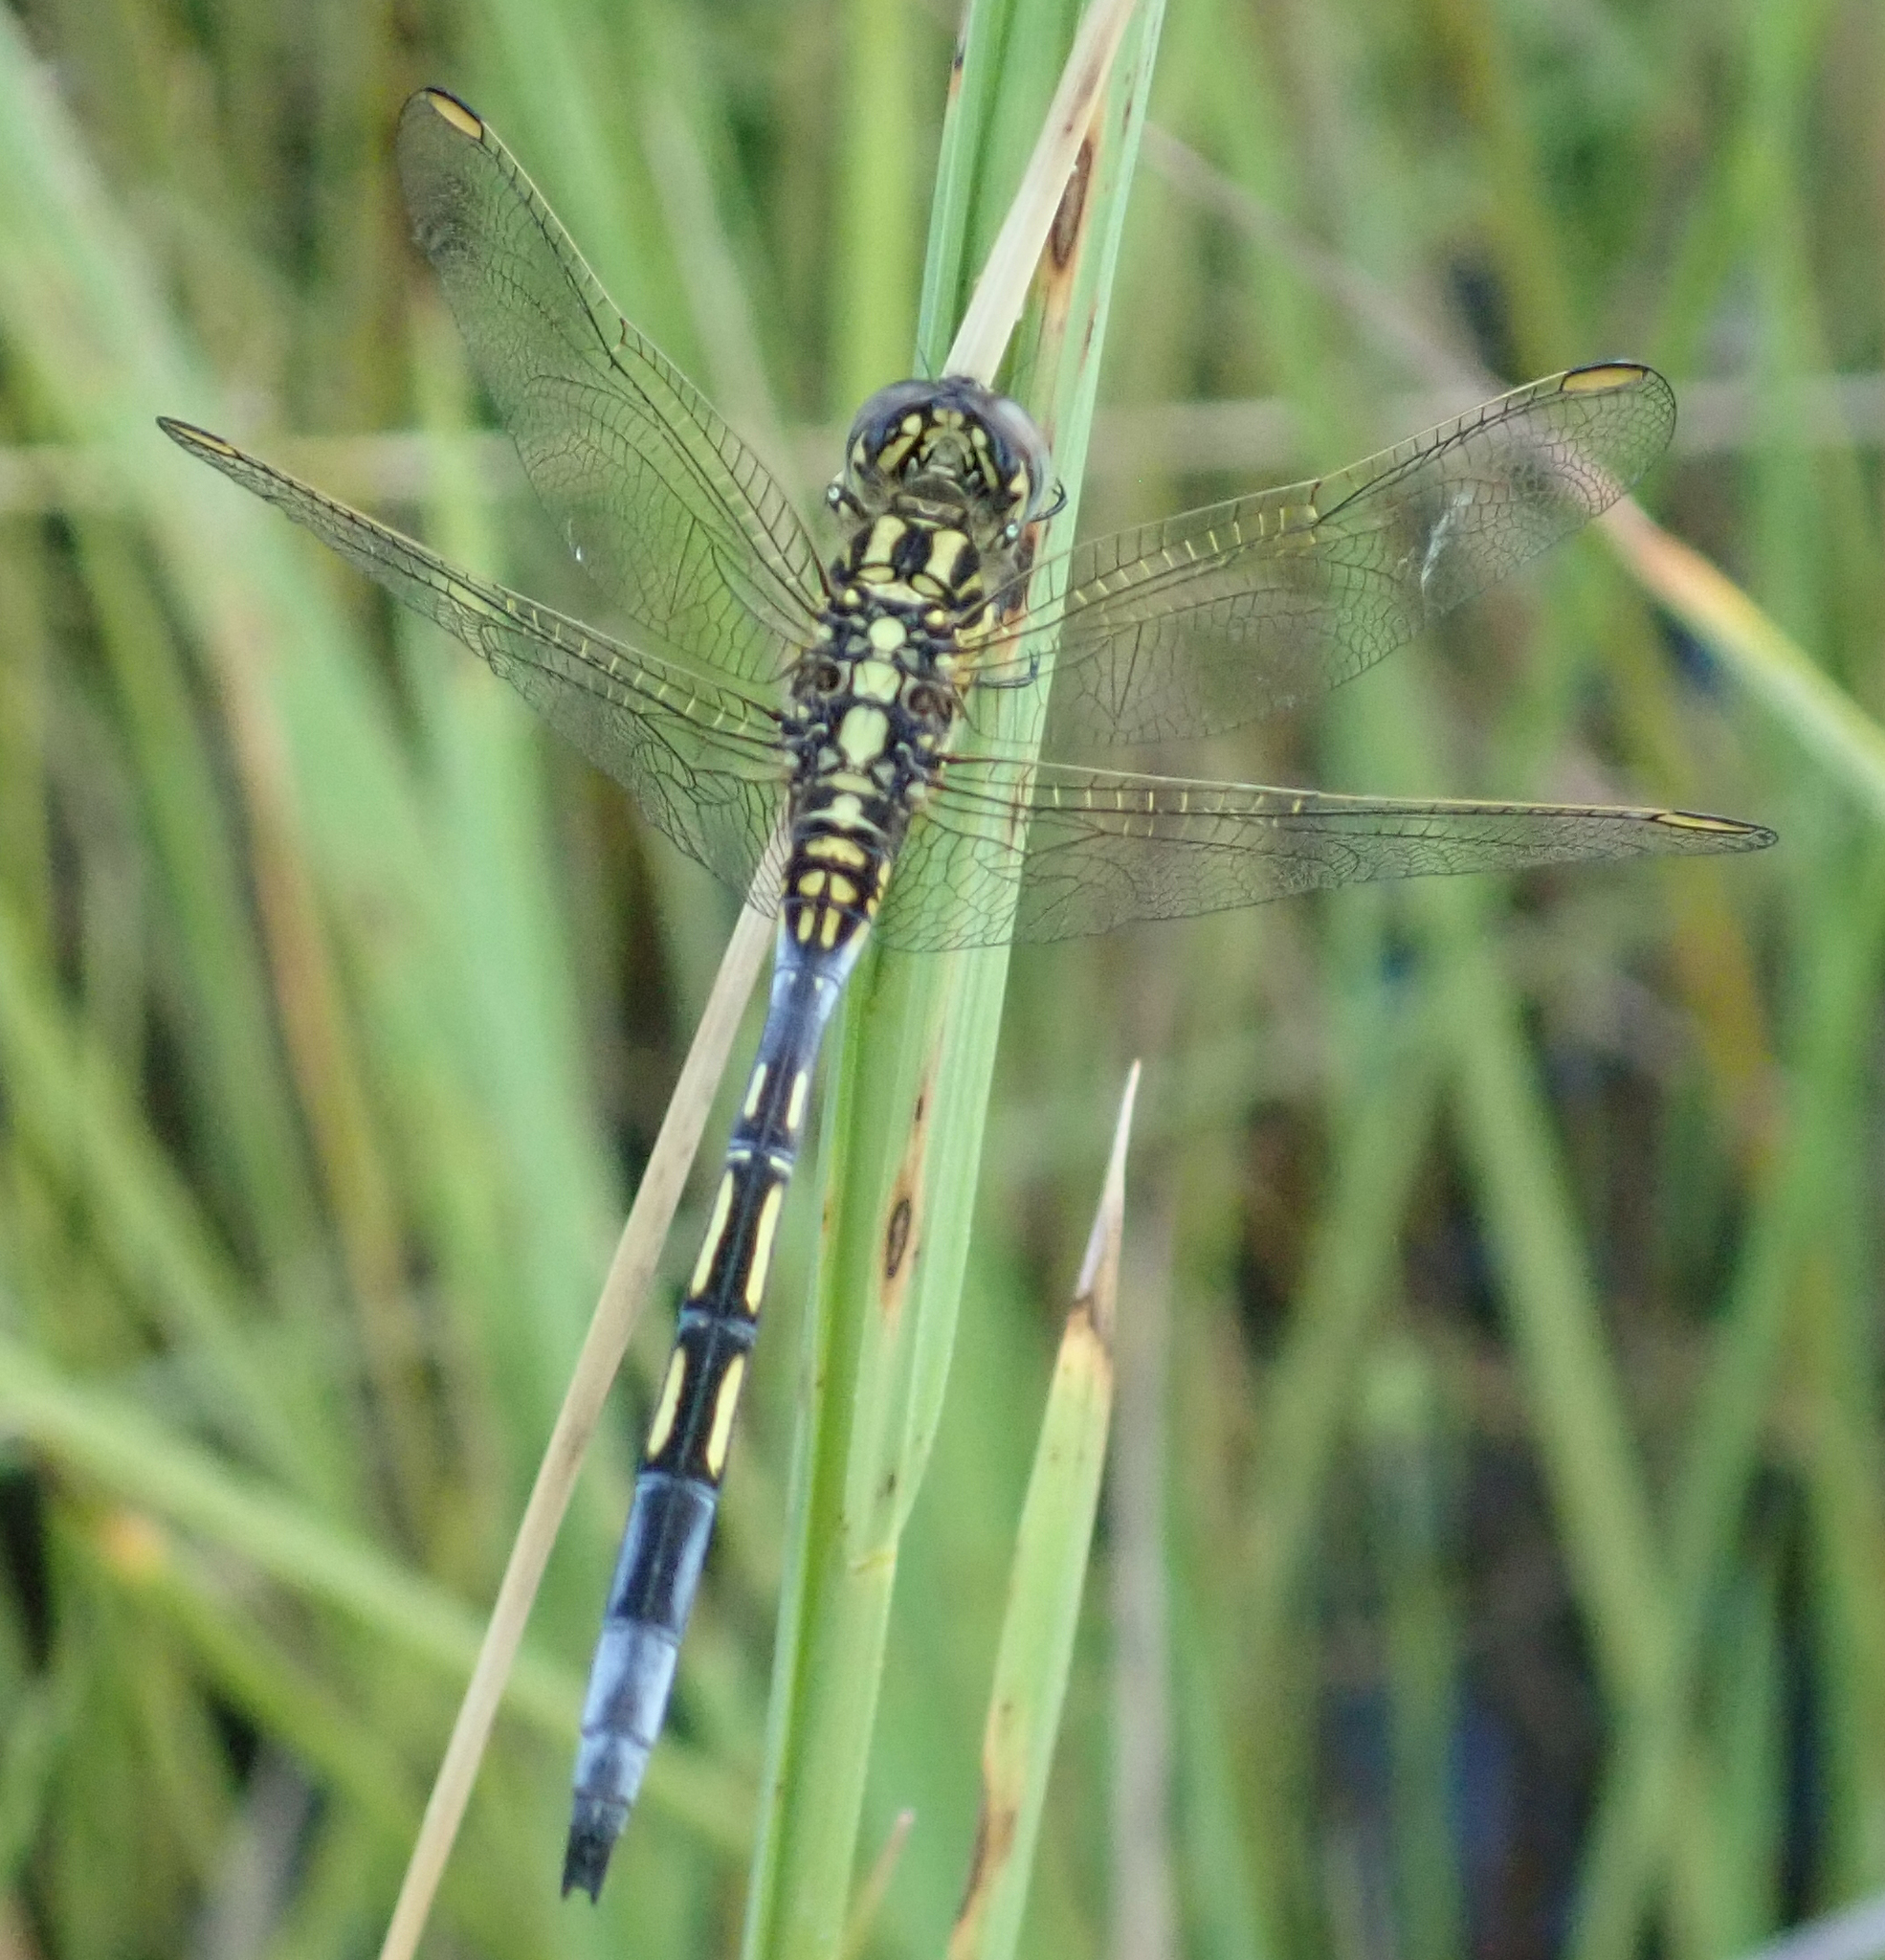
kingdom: Animalia
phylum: Arthropoda
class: Insecta
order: Odonata
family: Libellulidae
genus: Orthetrum
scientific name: Orthetrum icteromelas
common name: Spectacled skimmer
